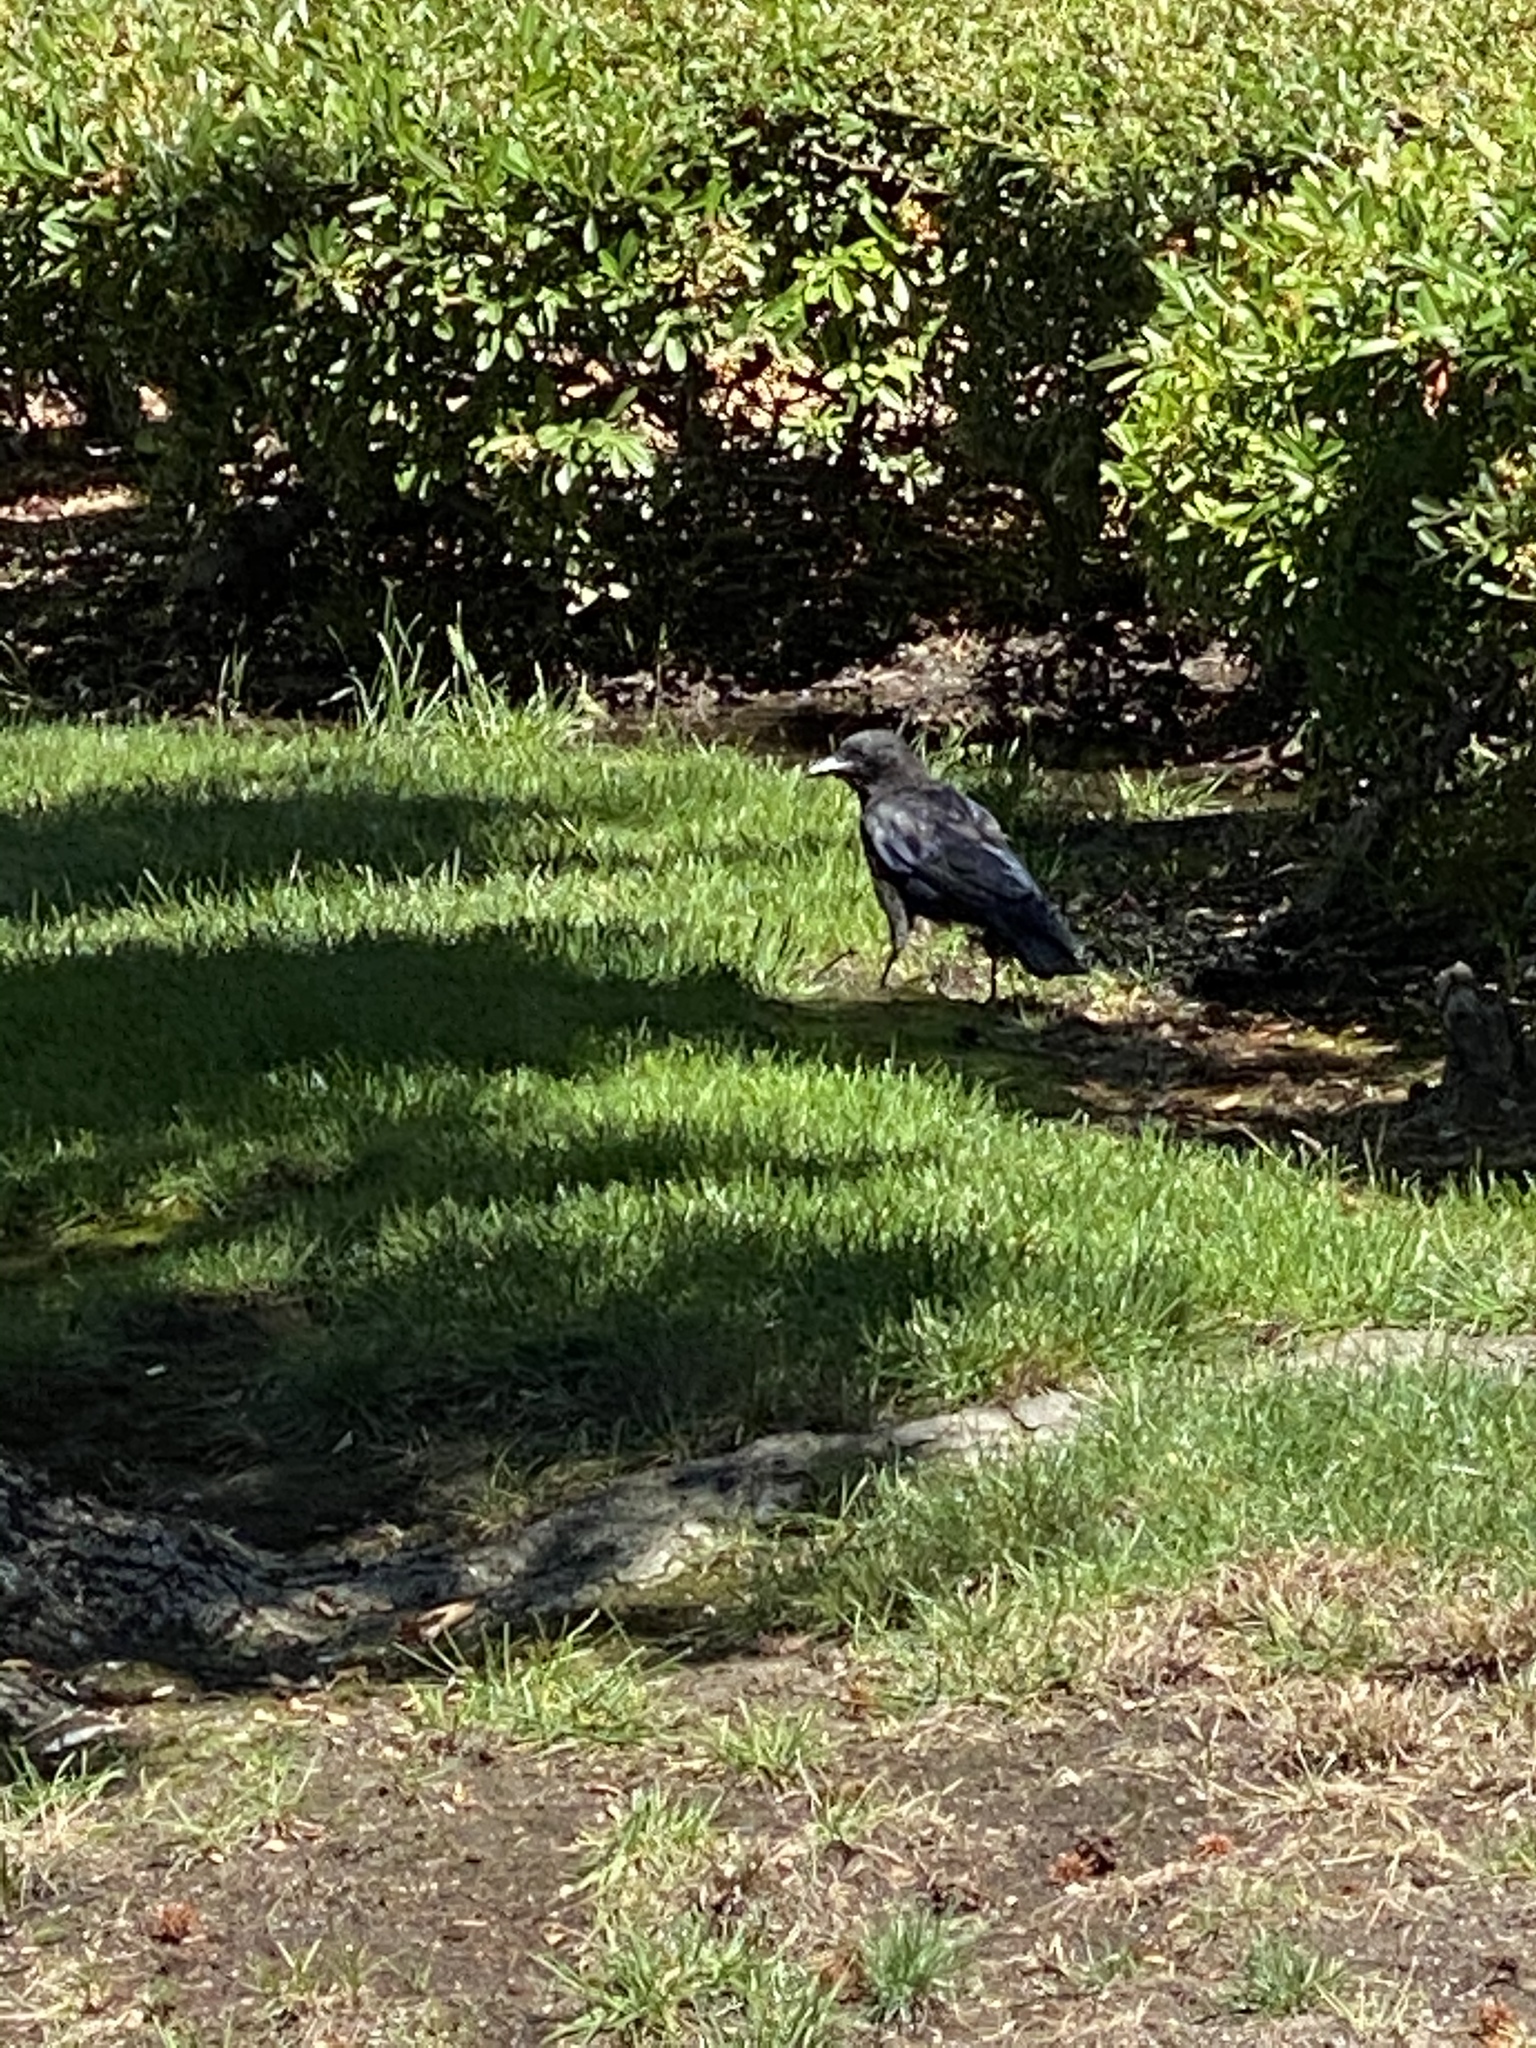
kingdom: Animalia
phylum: Chordata
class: Aves
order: Passeriformes
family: Corvidae
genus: Corvus
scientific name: Corvus brachyrhynchos
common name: American crow
